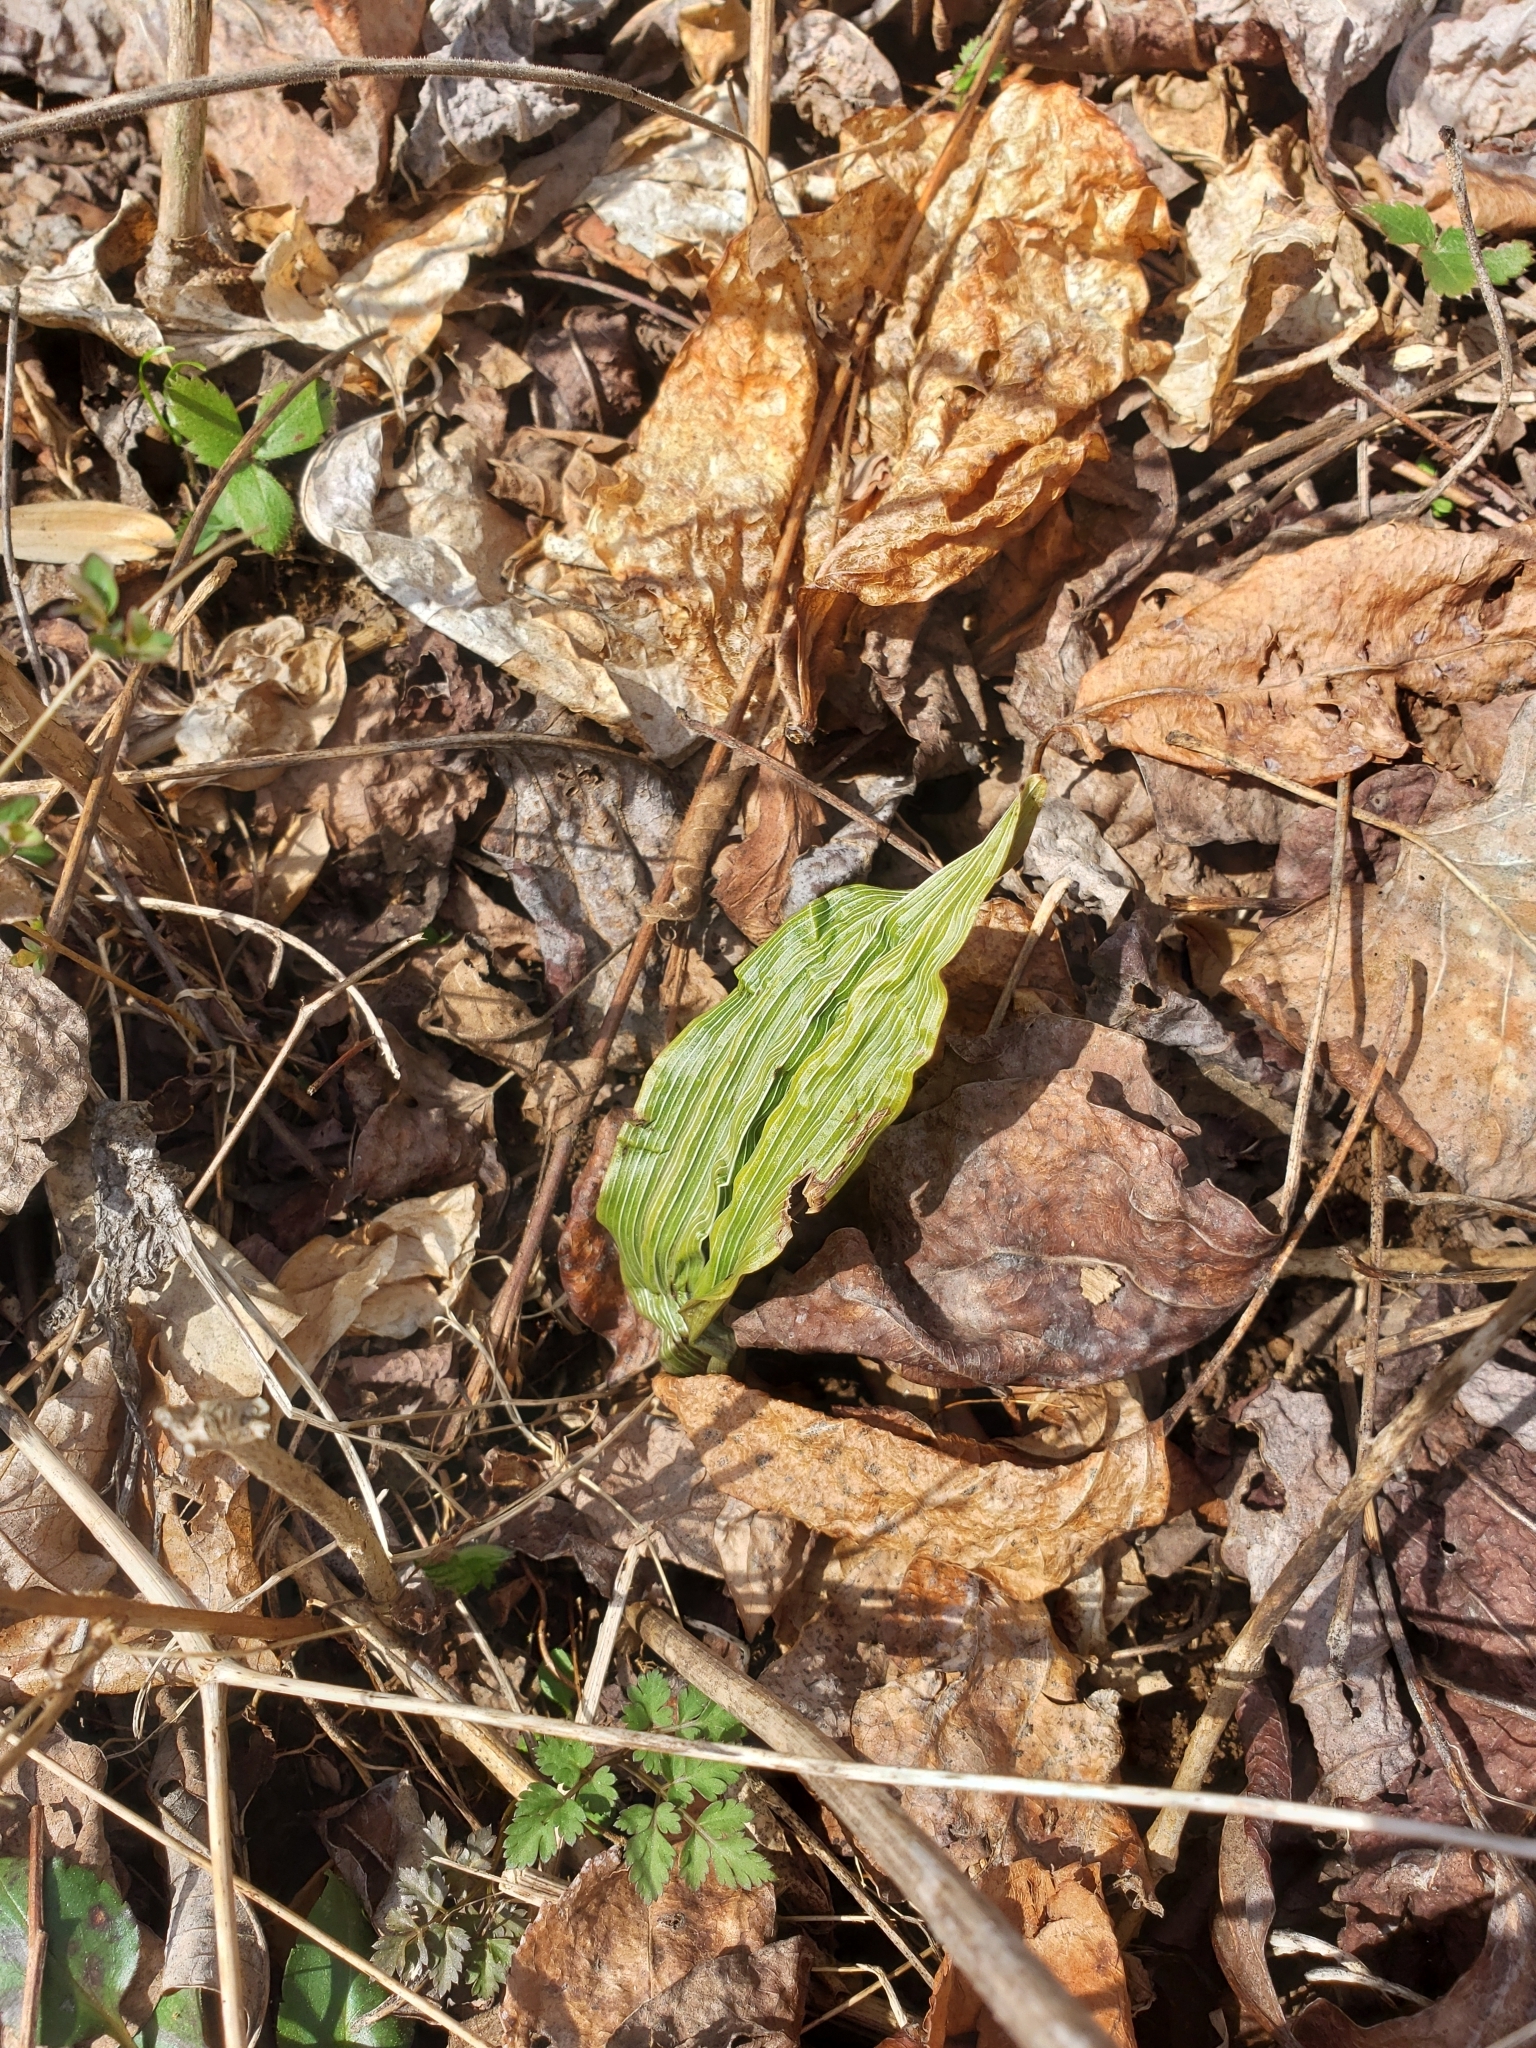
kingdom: Plantae
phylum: Tracheophyta
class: Liliopsida
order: Asparagales
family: Orchidaceae
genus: Aplectrum
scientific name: Aplectrum hyemale
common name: Adam-and-eve
